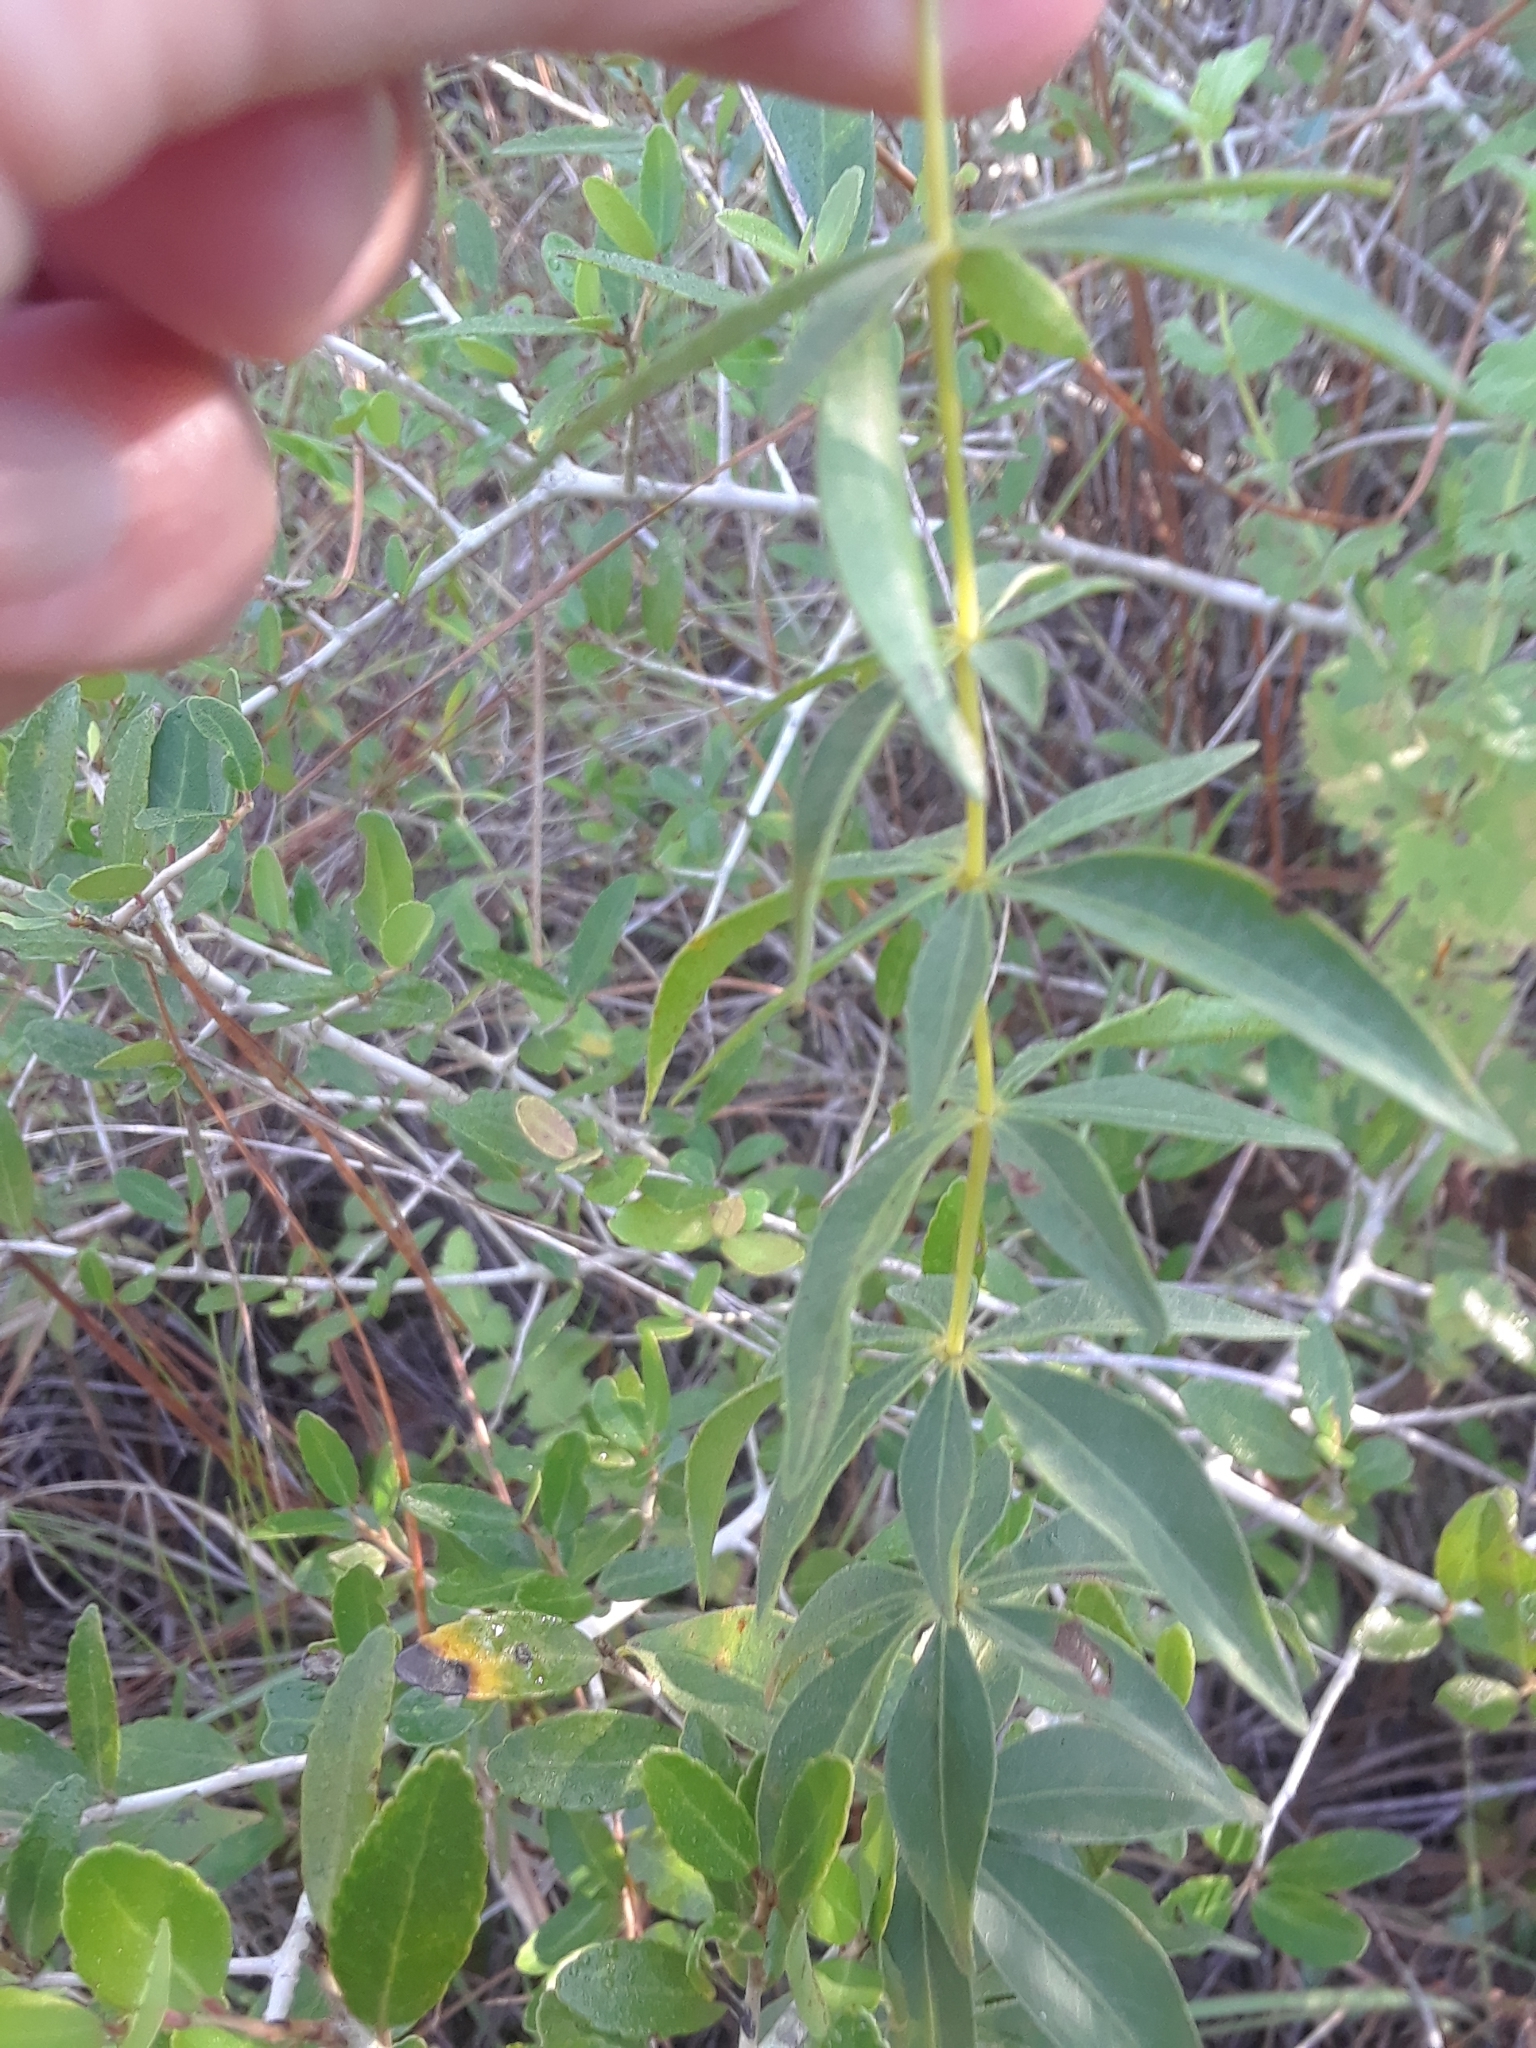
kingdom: Plantae
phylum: Tracheophyta
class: Magnoliopsida
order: Asterales
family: Asteraceae
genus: Coreopsis
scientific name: Coreopsis major
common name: Forest tickseed
